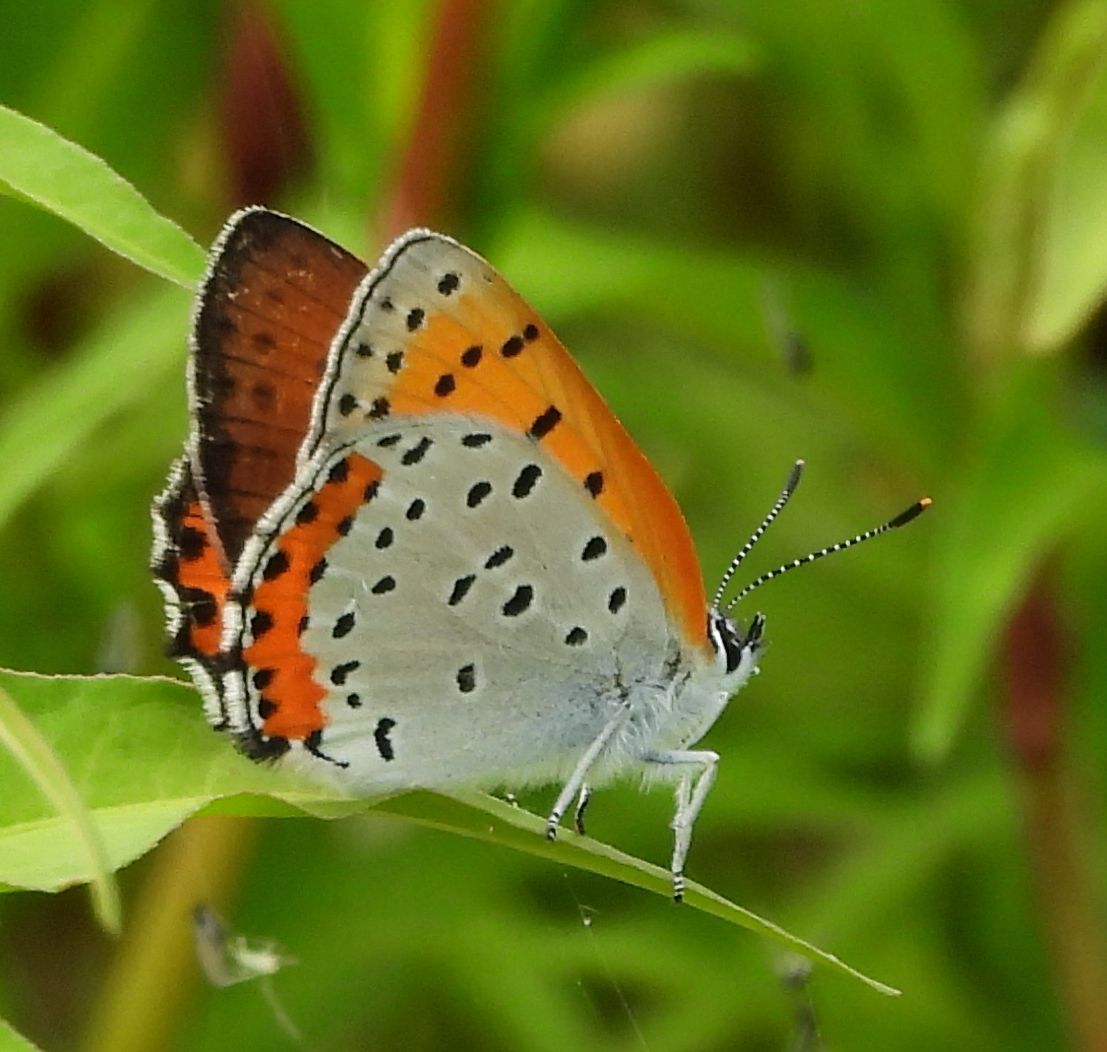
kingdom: Animalia
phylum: Arthropoda
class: Insecta
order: Lepidoptera
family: Lycaenidae
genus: Tharsalea
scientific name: Tharsalea hyllus
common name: Bronze copper
